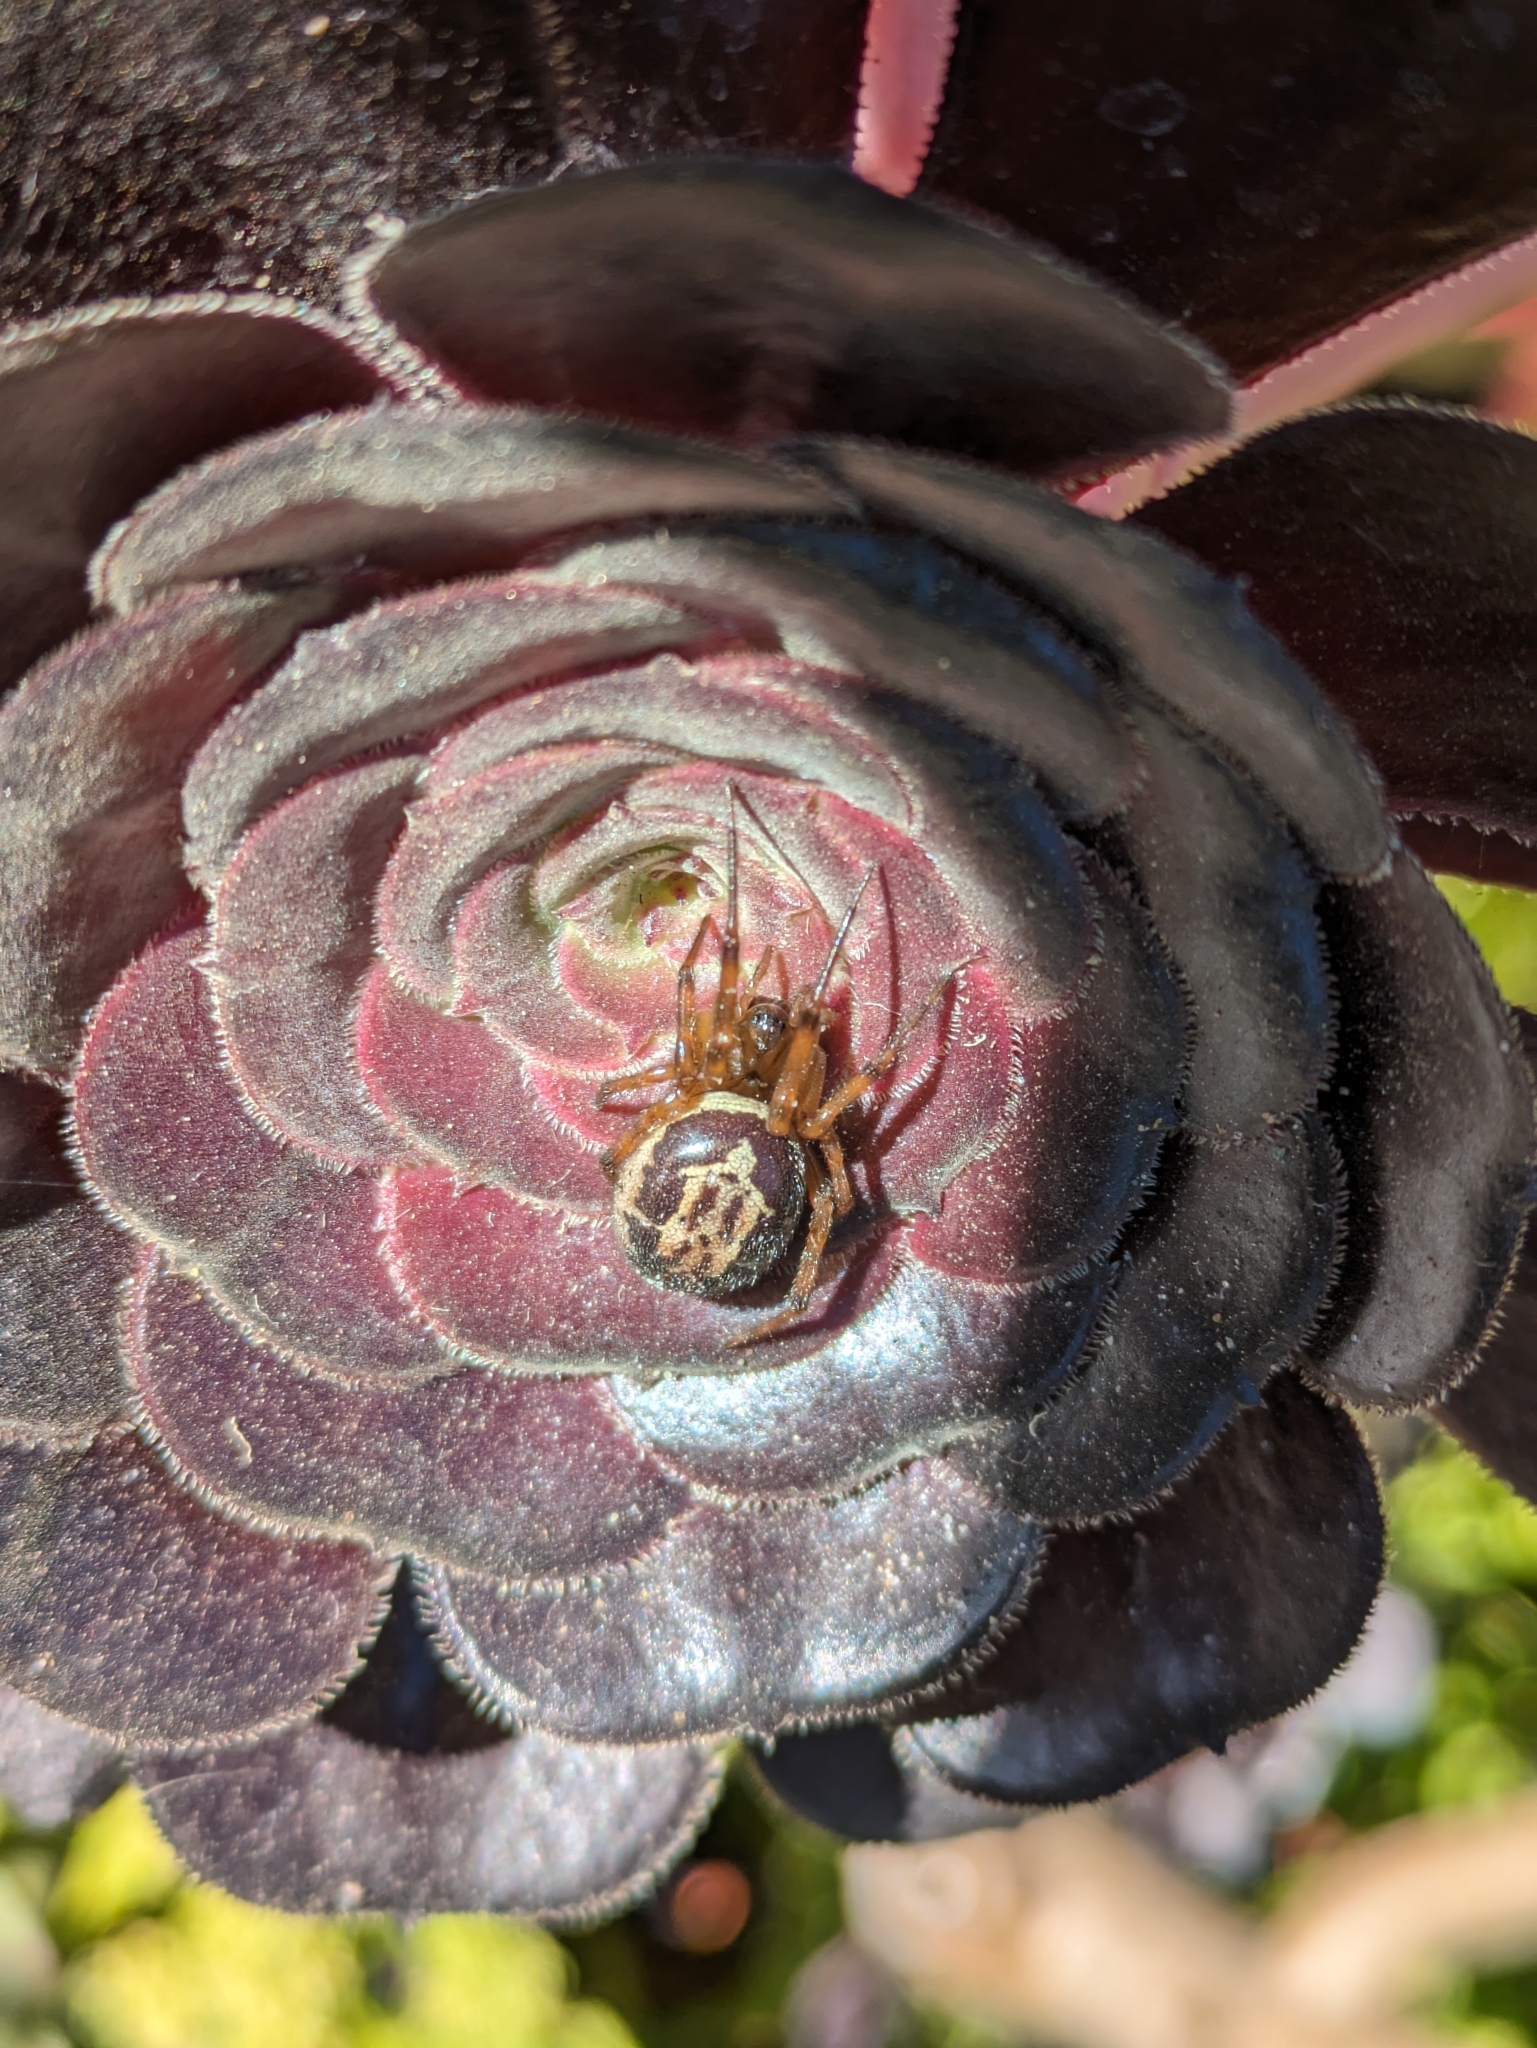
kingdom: Animalia
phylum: Arthropoda
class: Arachnida
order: Araneae
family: Theridiidae
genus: Steatoda
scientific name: Steatoda nobilis
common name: Cobweb weaver
